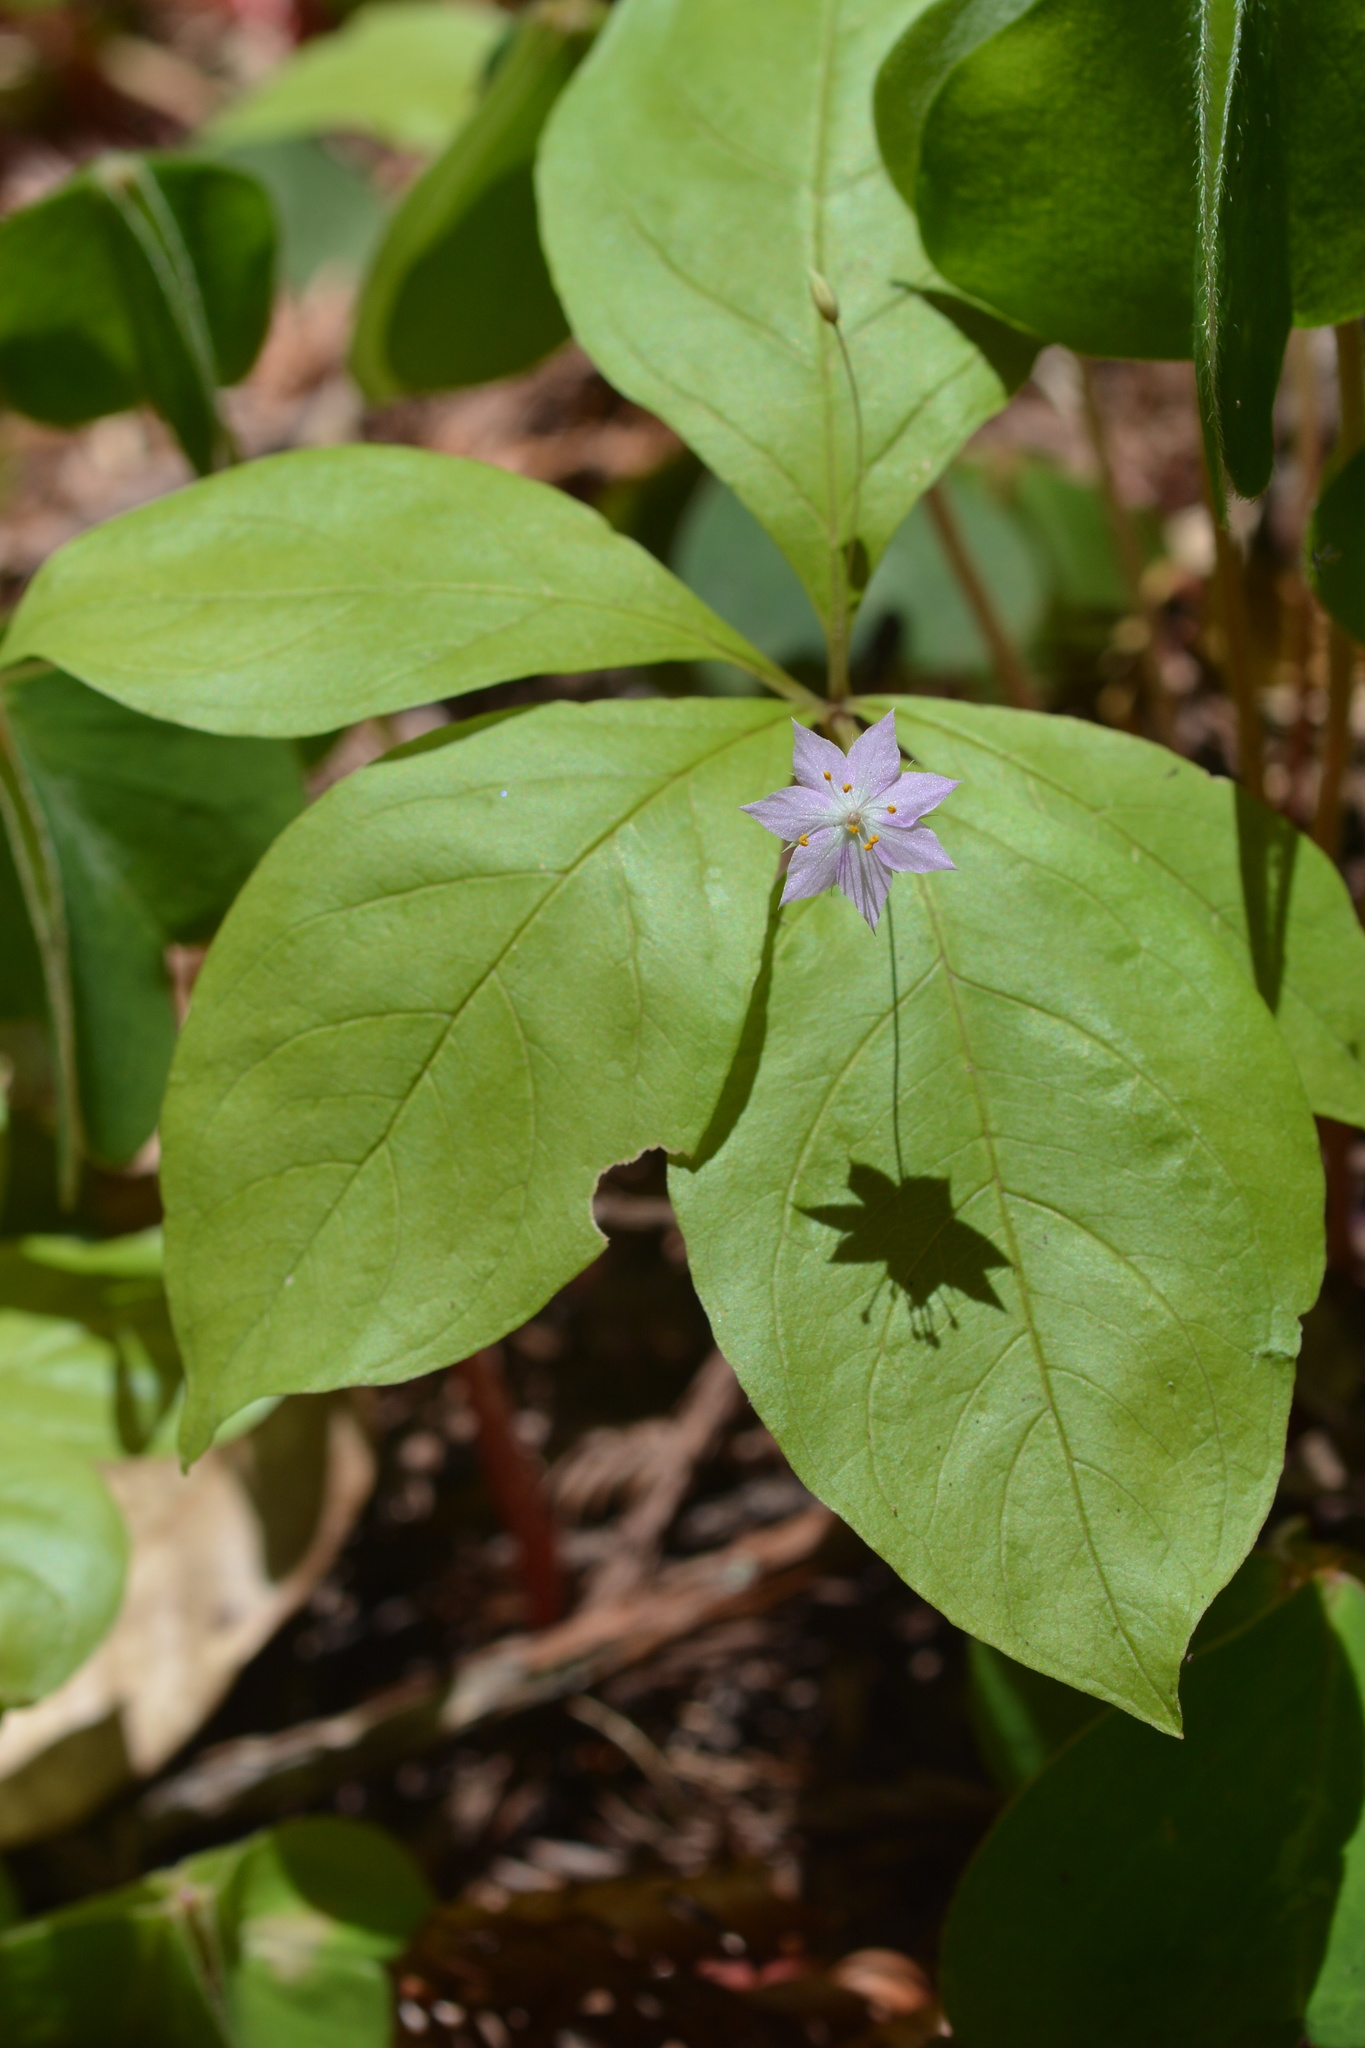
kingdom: Plantae
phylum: Tracheophyta
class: Magnoliopsida
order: Ericales
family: Primulaceae
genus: Lysimachia
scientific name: Lysimachia latifolia
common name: Pacific starflower
